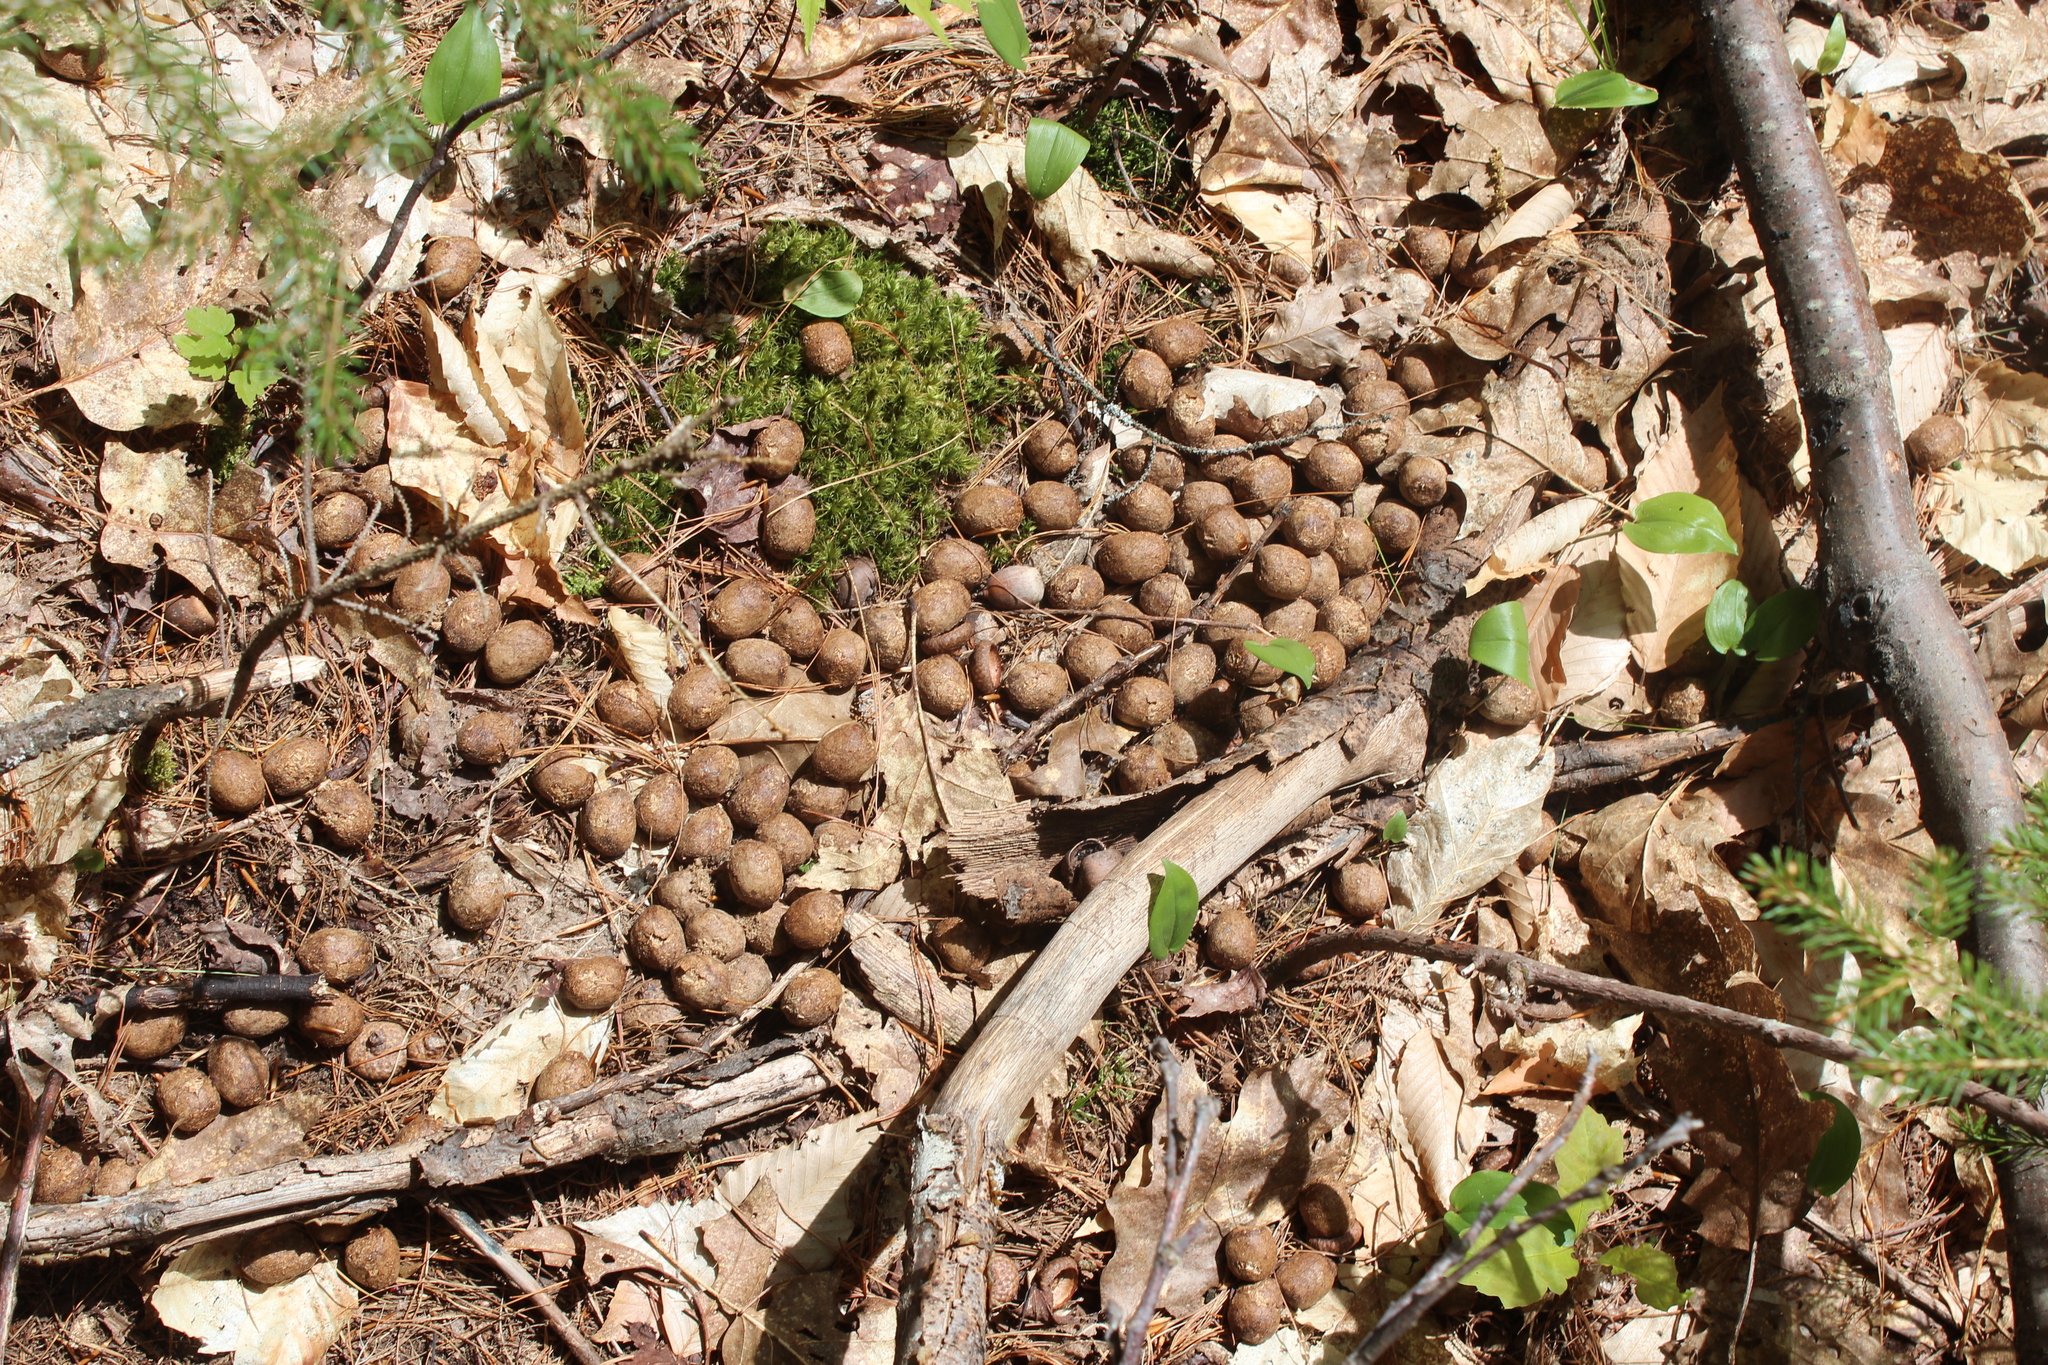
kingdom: Animalia
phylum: Chordata
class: Mammalia
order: Artiodactyla
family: Cervidae
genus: Alces
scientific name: Alces alces
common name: Moose
